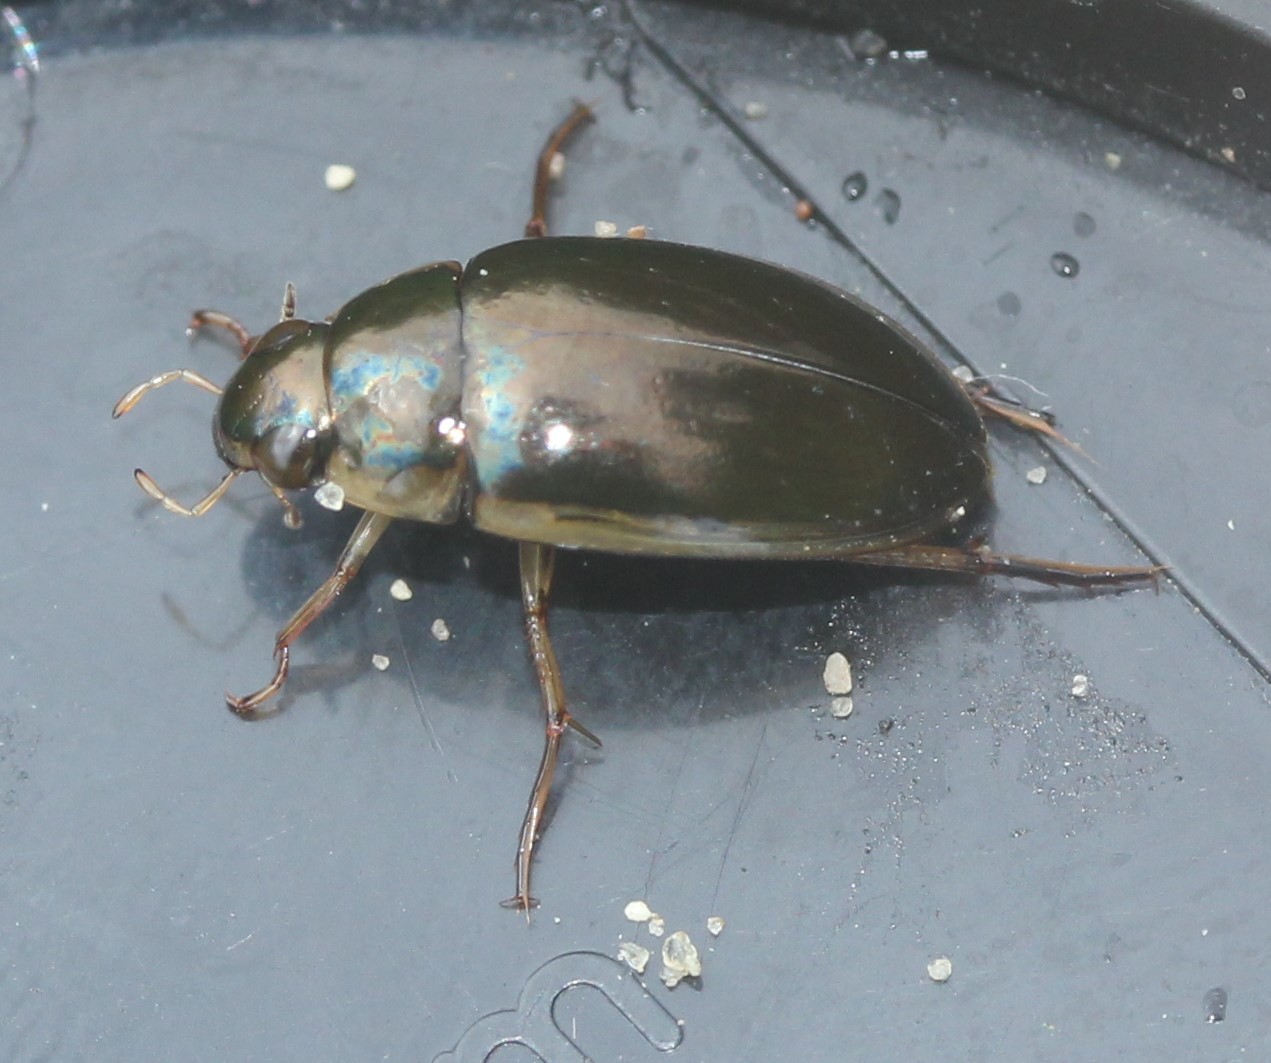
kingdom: Animalia
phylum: Arthropoda
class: Insecta
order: Coleoptera
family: Hydrophilidae
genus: Tropisternus
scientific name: Tropisternus lateralis
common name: Lateral-banded water scavenger beetle
